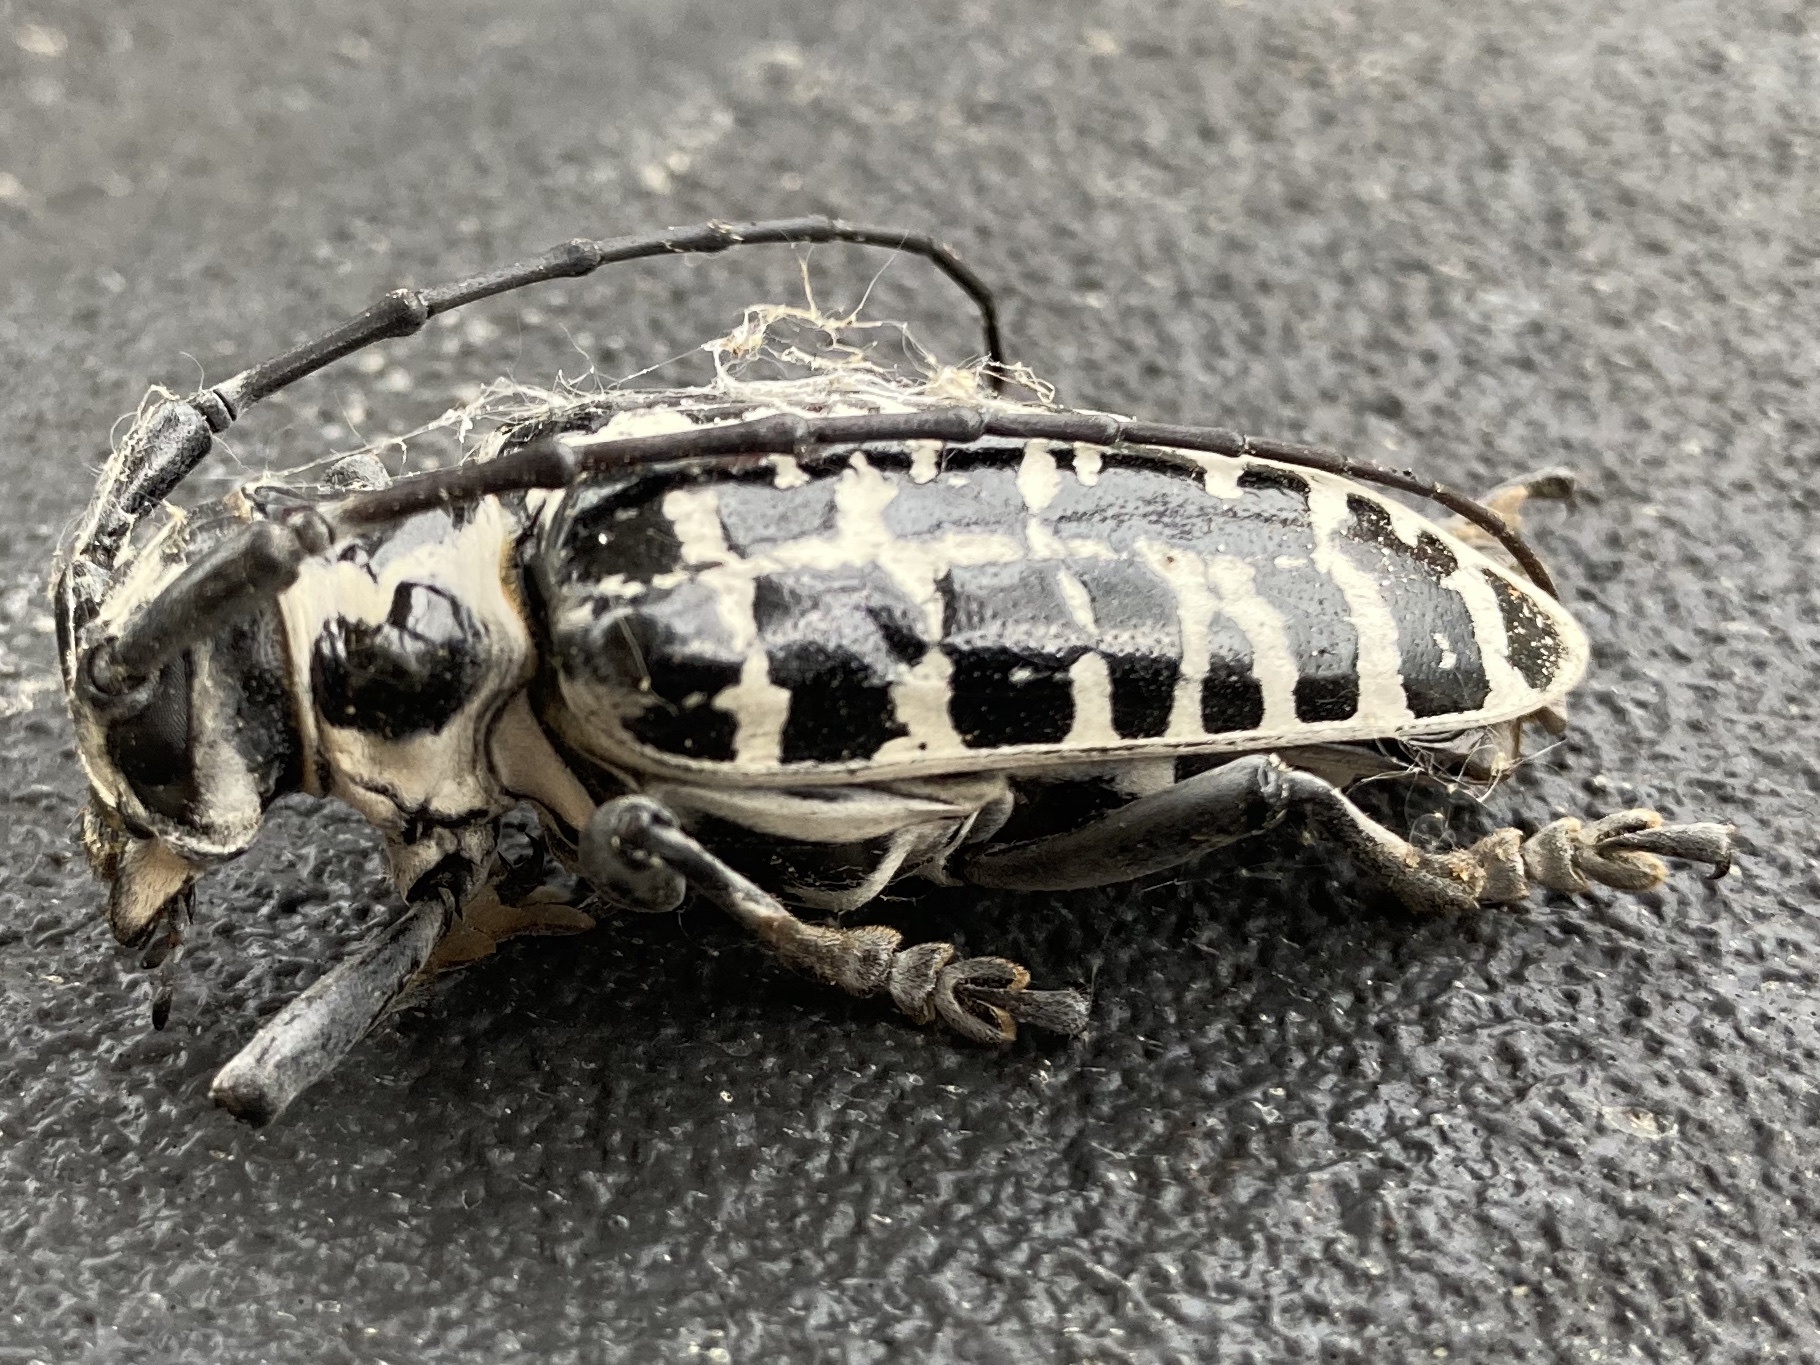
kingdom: Animalia
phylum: Arthropoda
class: Insecta
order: Coleoptera
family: Cerambycidae
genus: Plectrodera
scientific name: Plectrodera scalator
